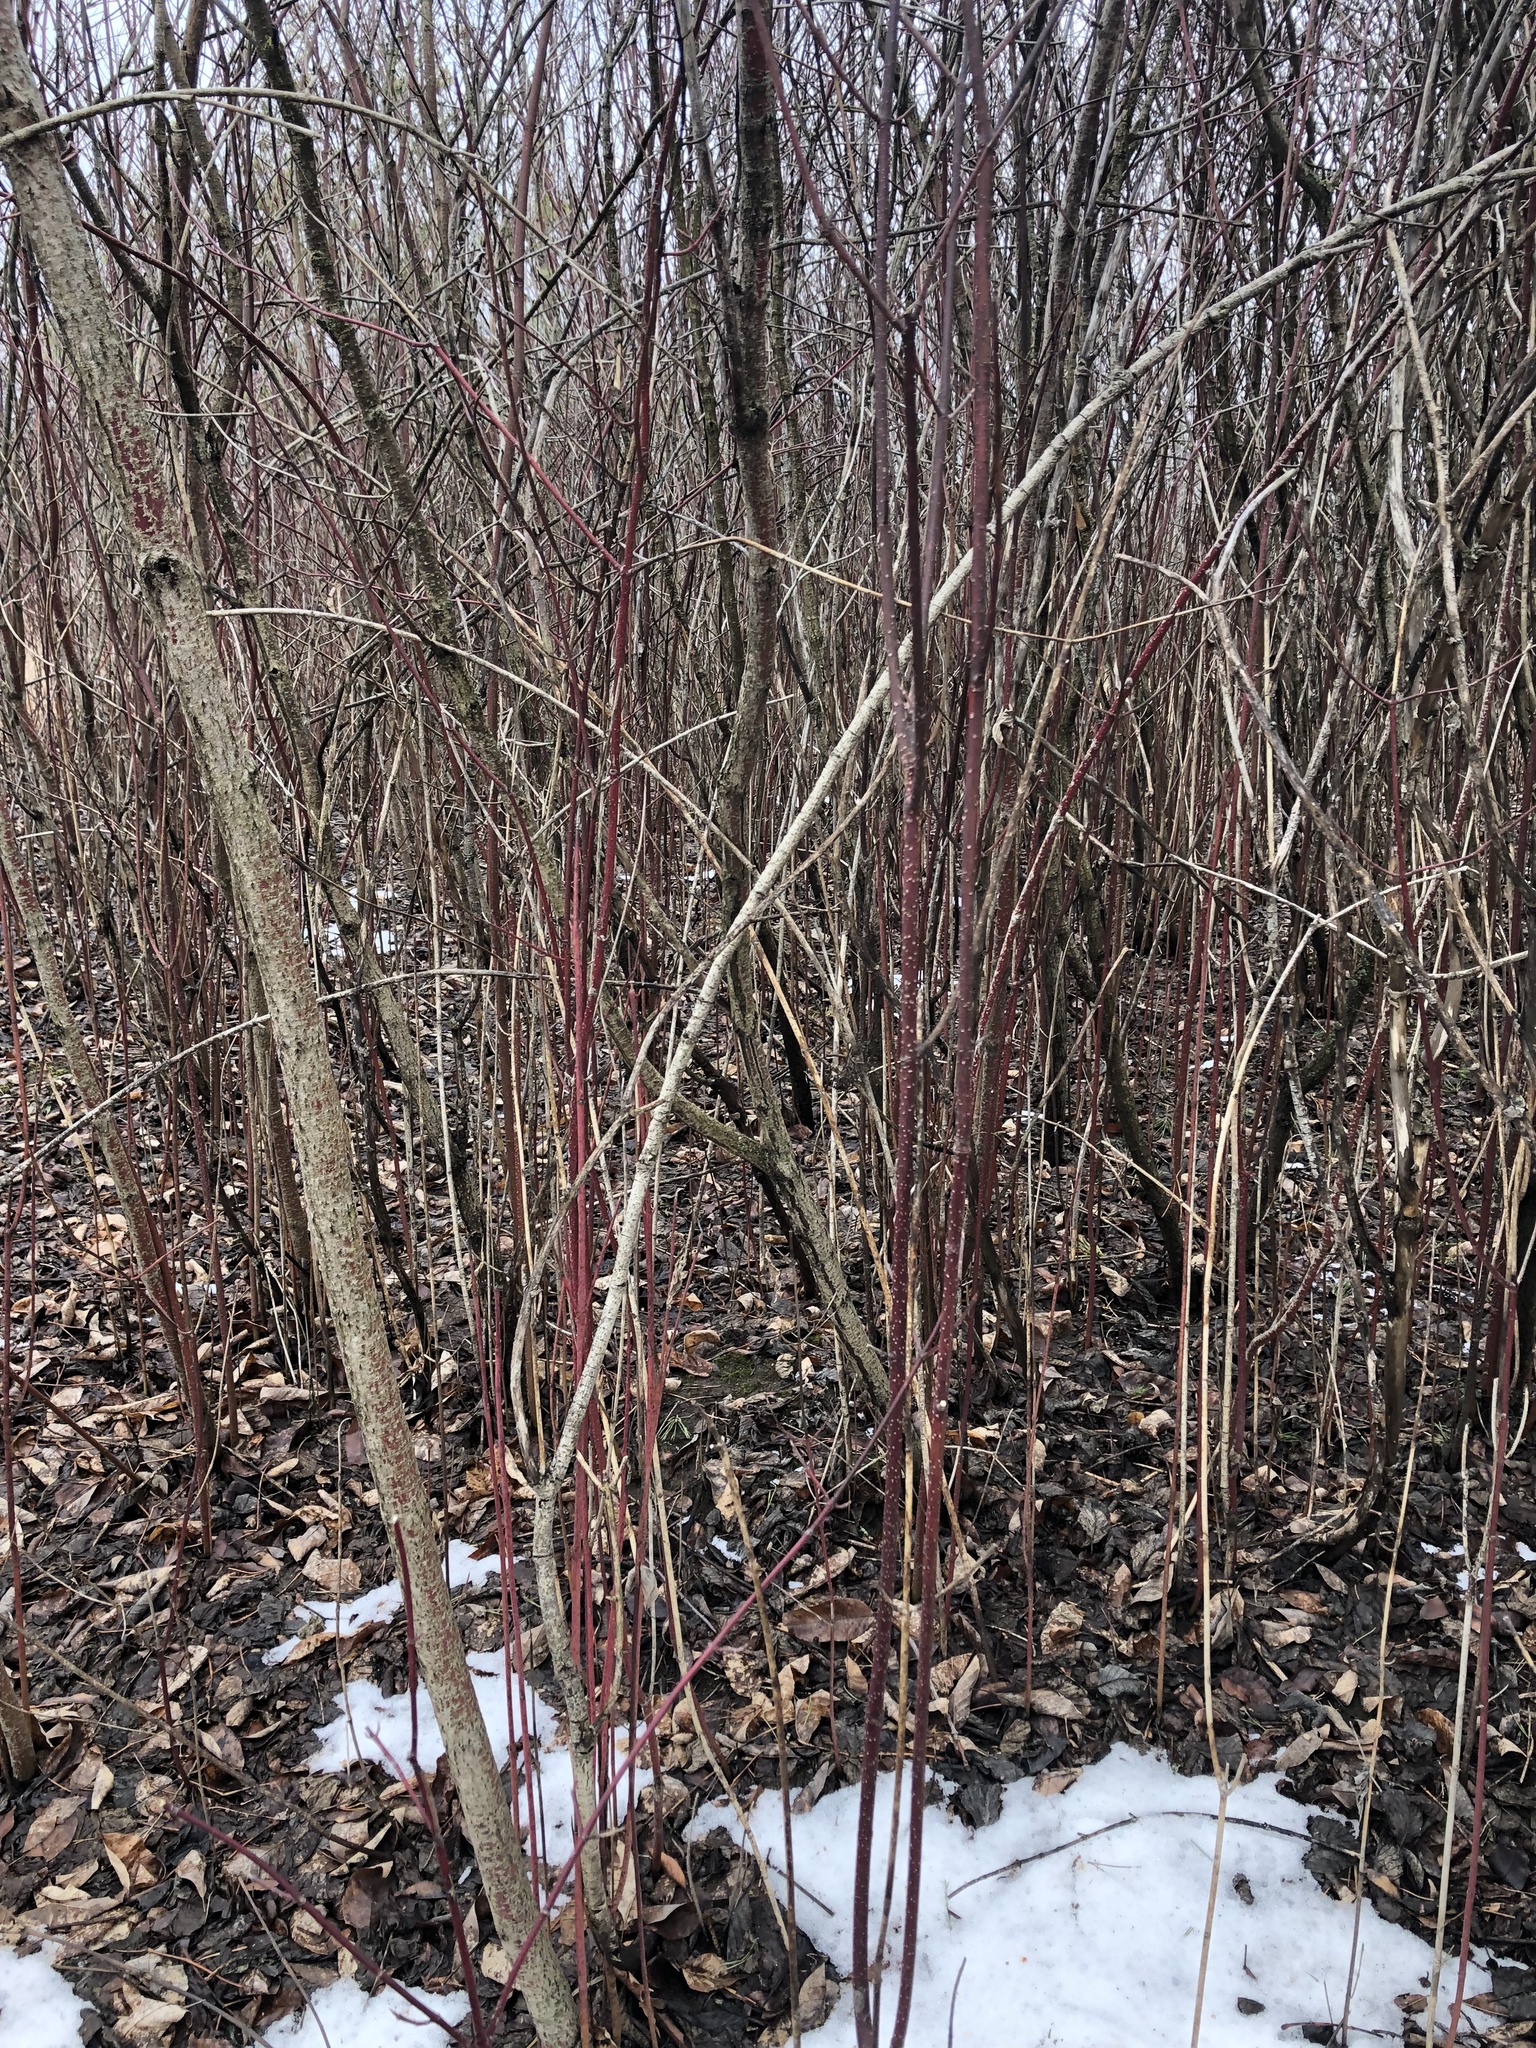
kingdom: Plantae
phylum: Tracheophyta
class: Magnoliopsida
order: Cornales
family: Cornaceae
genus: Cornus
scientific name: Cornus sericea
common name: Red-osier dogwood
